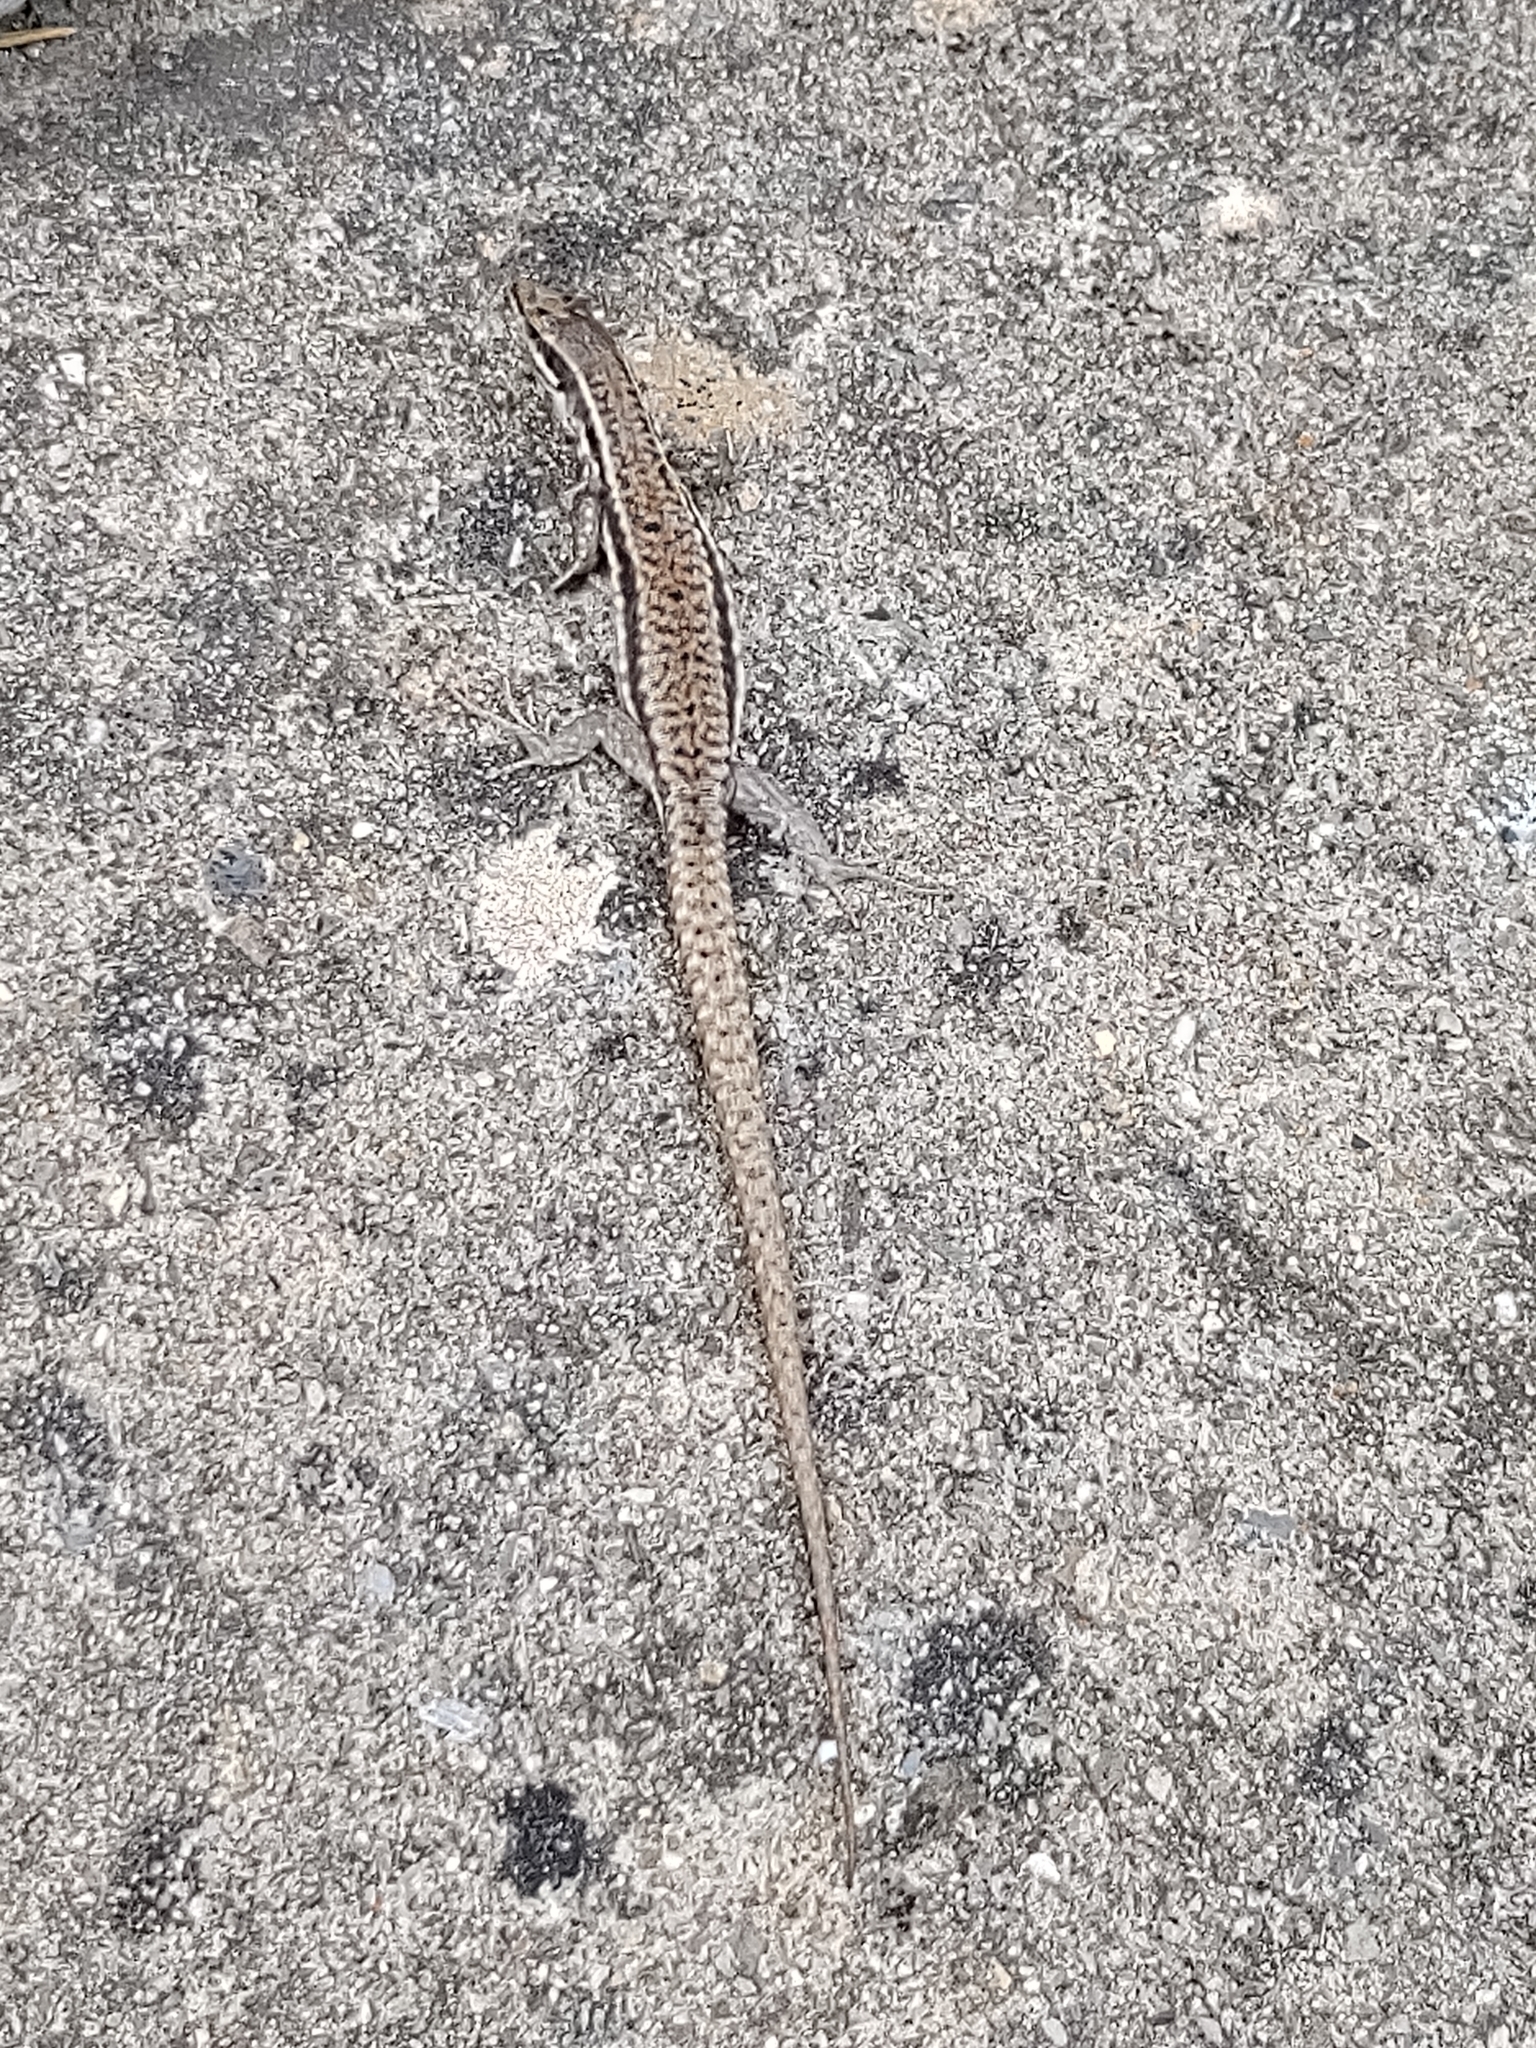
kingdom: Animalia
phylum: Chordata
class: Squamata
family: Lacertidae
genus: Podarcis
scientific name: Podarcis muralis
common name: Common wall lizard
